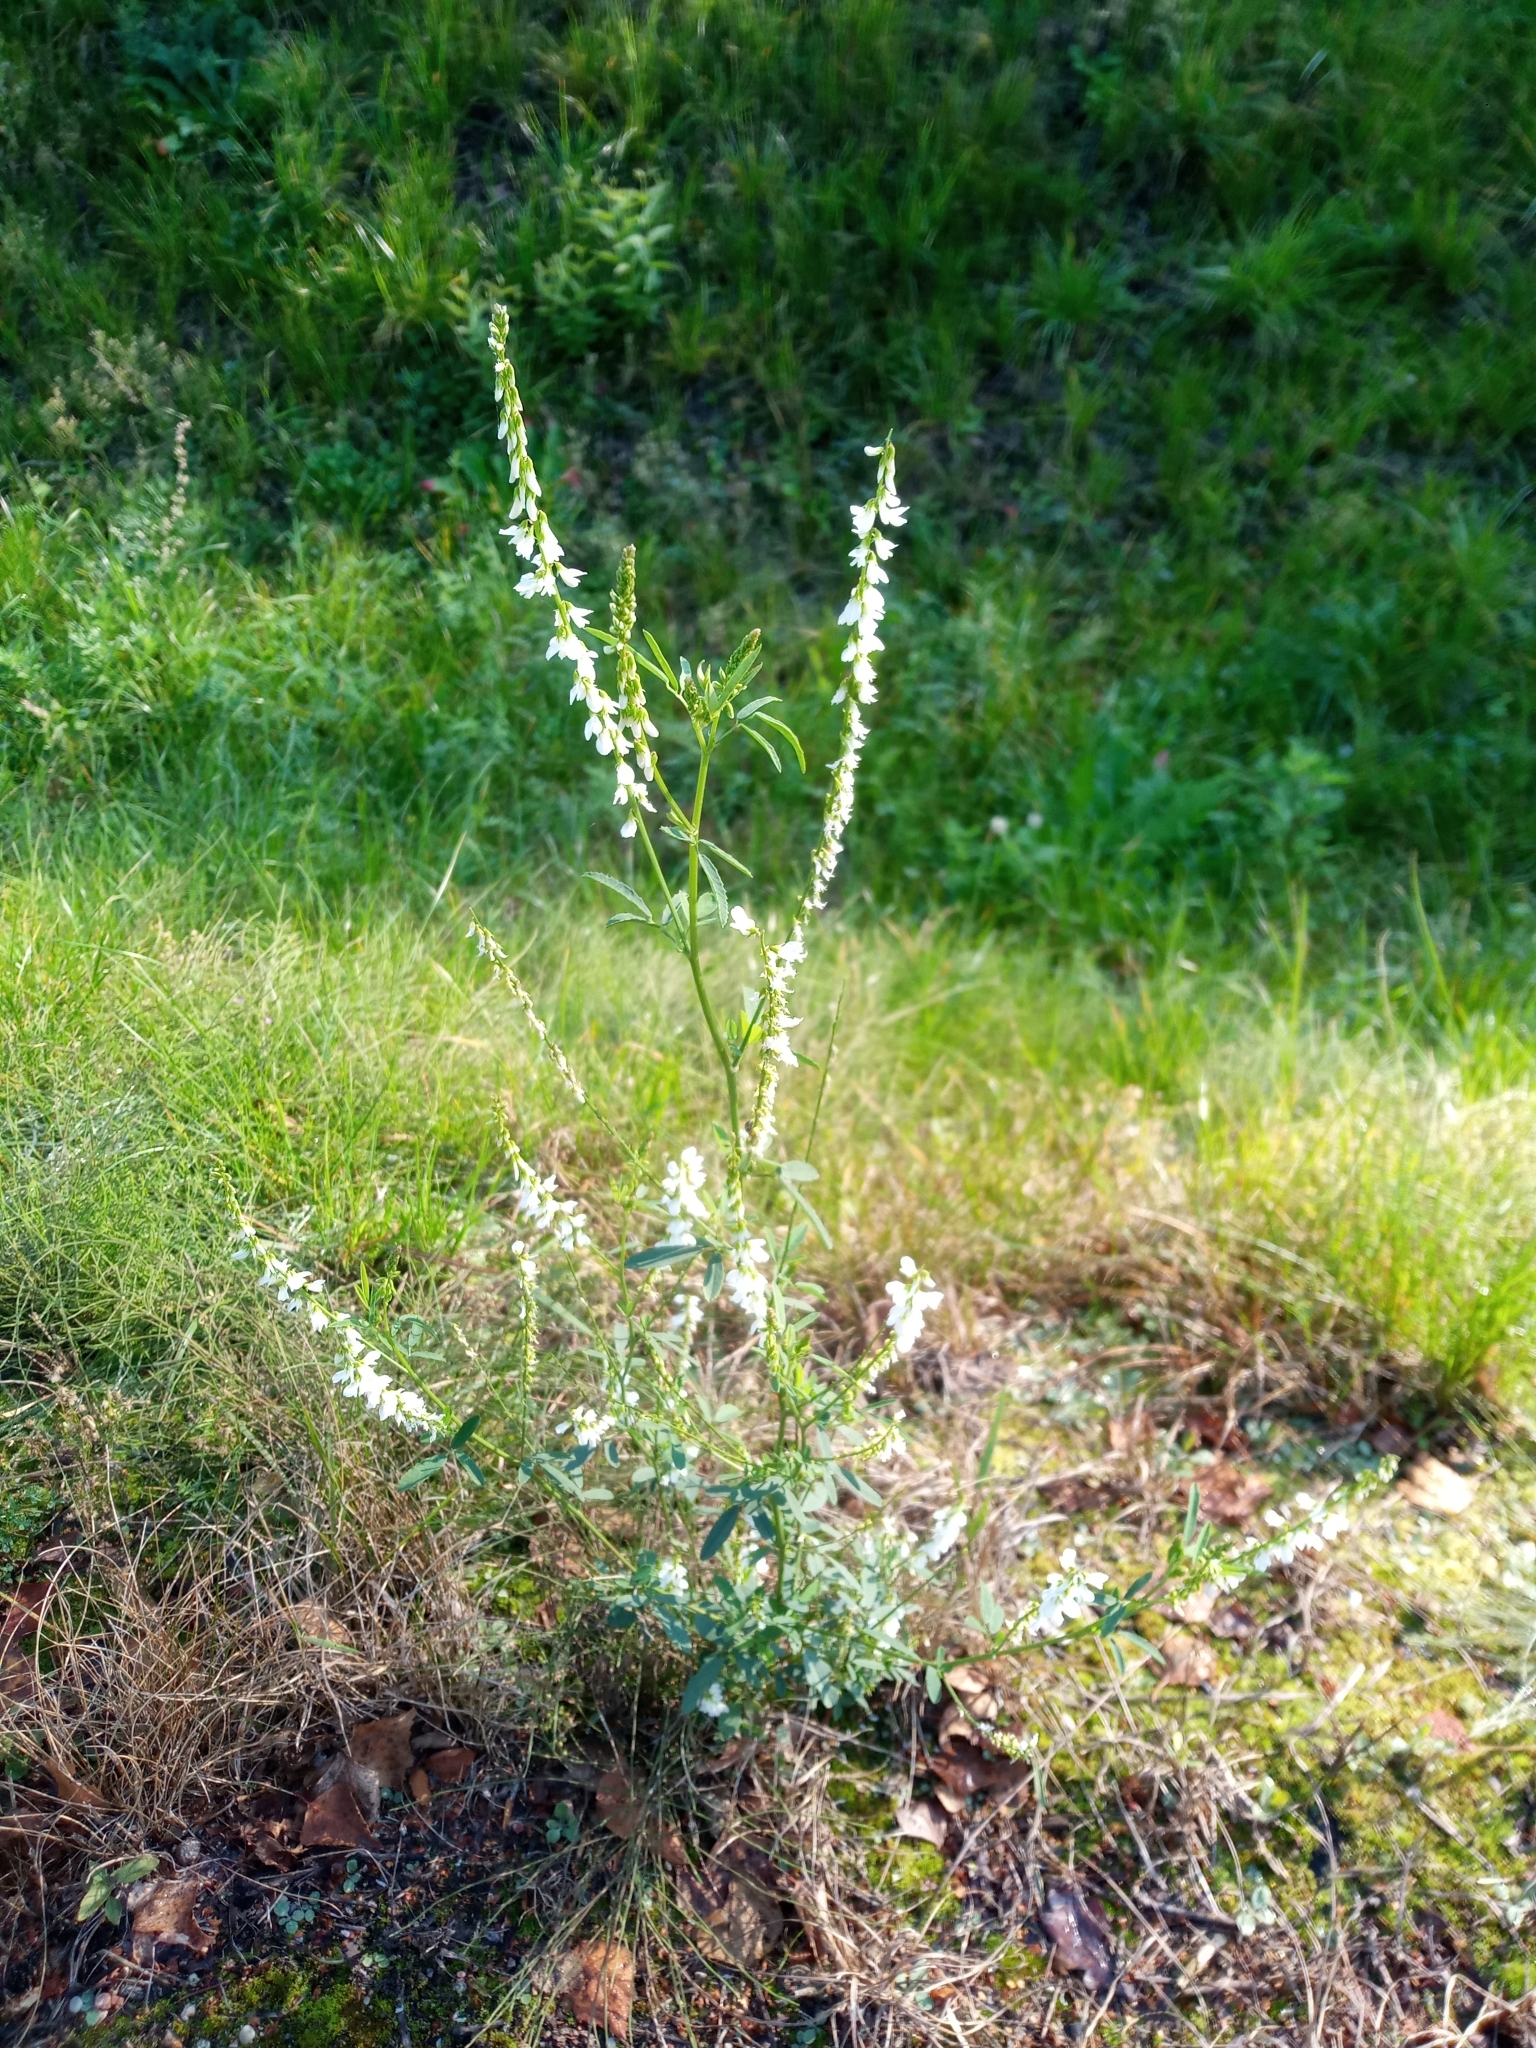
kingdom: Plantae
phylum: Tracheophyta
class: Magnoliopsida
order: Fabales
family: Fabaceae
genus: Melilotus
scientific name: Melilotus albus
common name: White melilot
